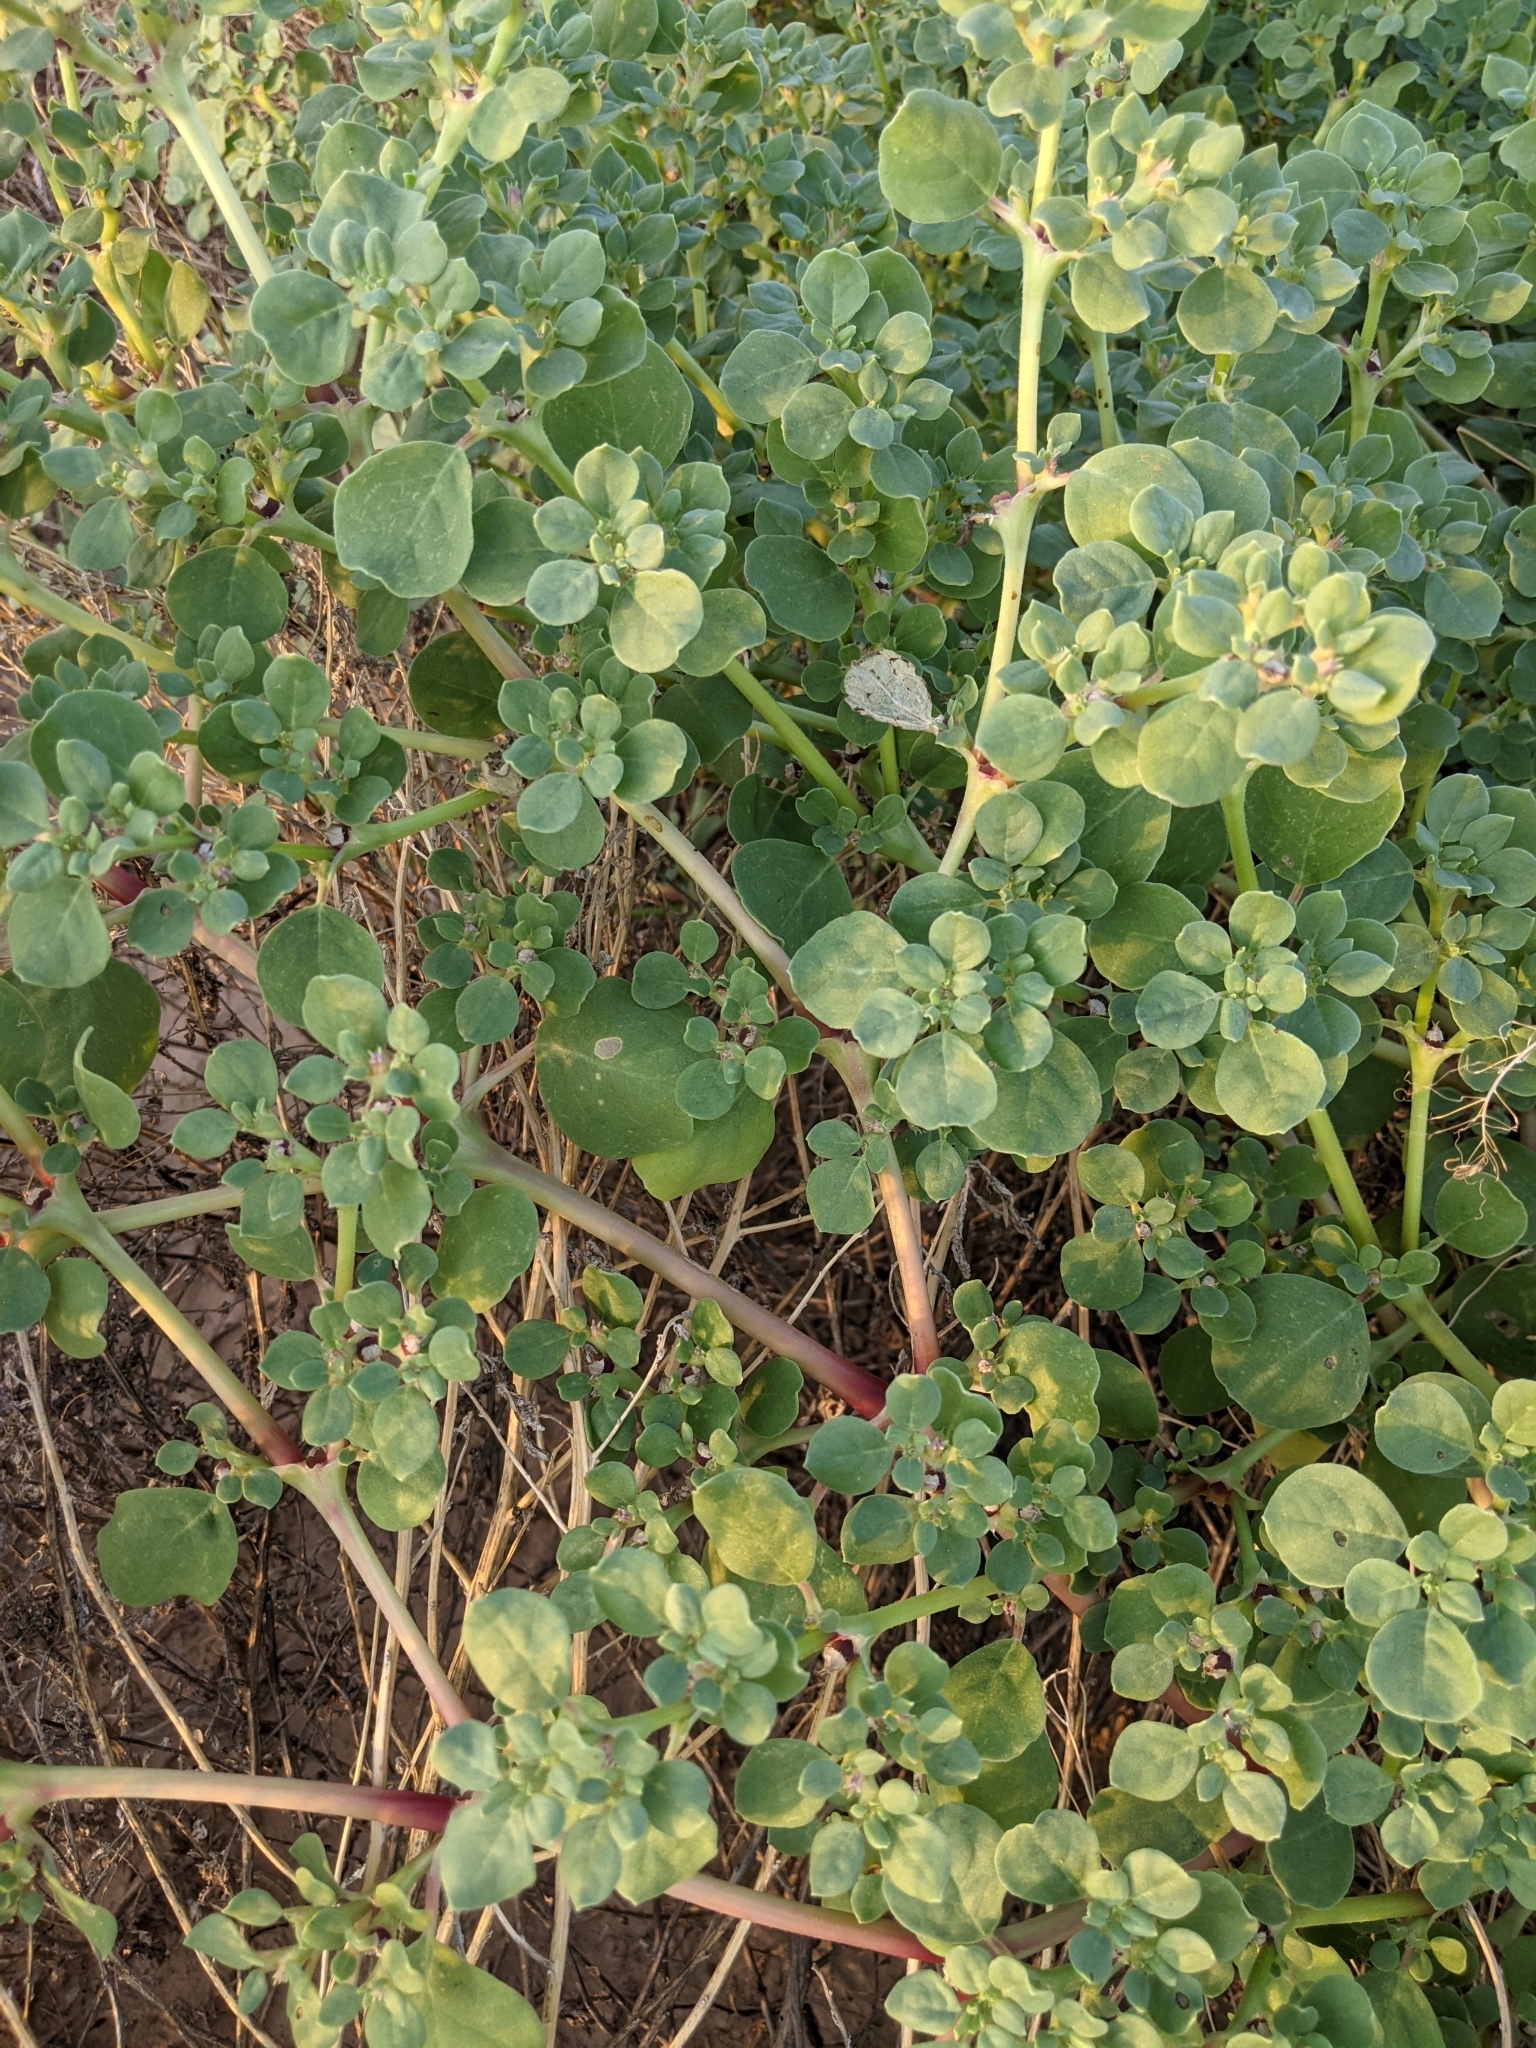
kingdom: Plantae
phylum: Tracheophyta
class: Magnoliopsida
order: Caryophyllales
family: Aizoaceae
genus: Trianthema
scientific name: Trianthema portulacastrum
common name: Desert horsepurslane
